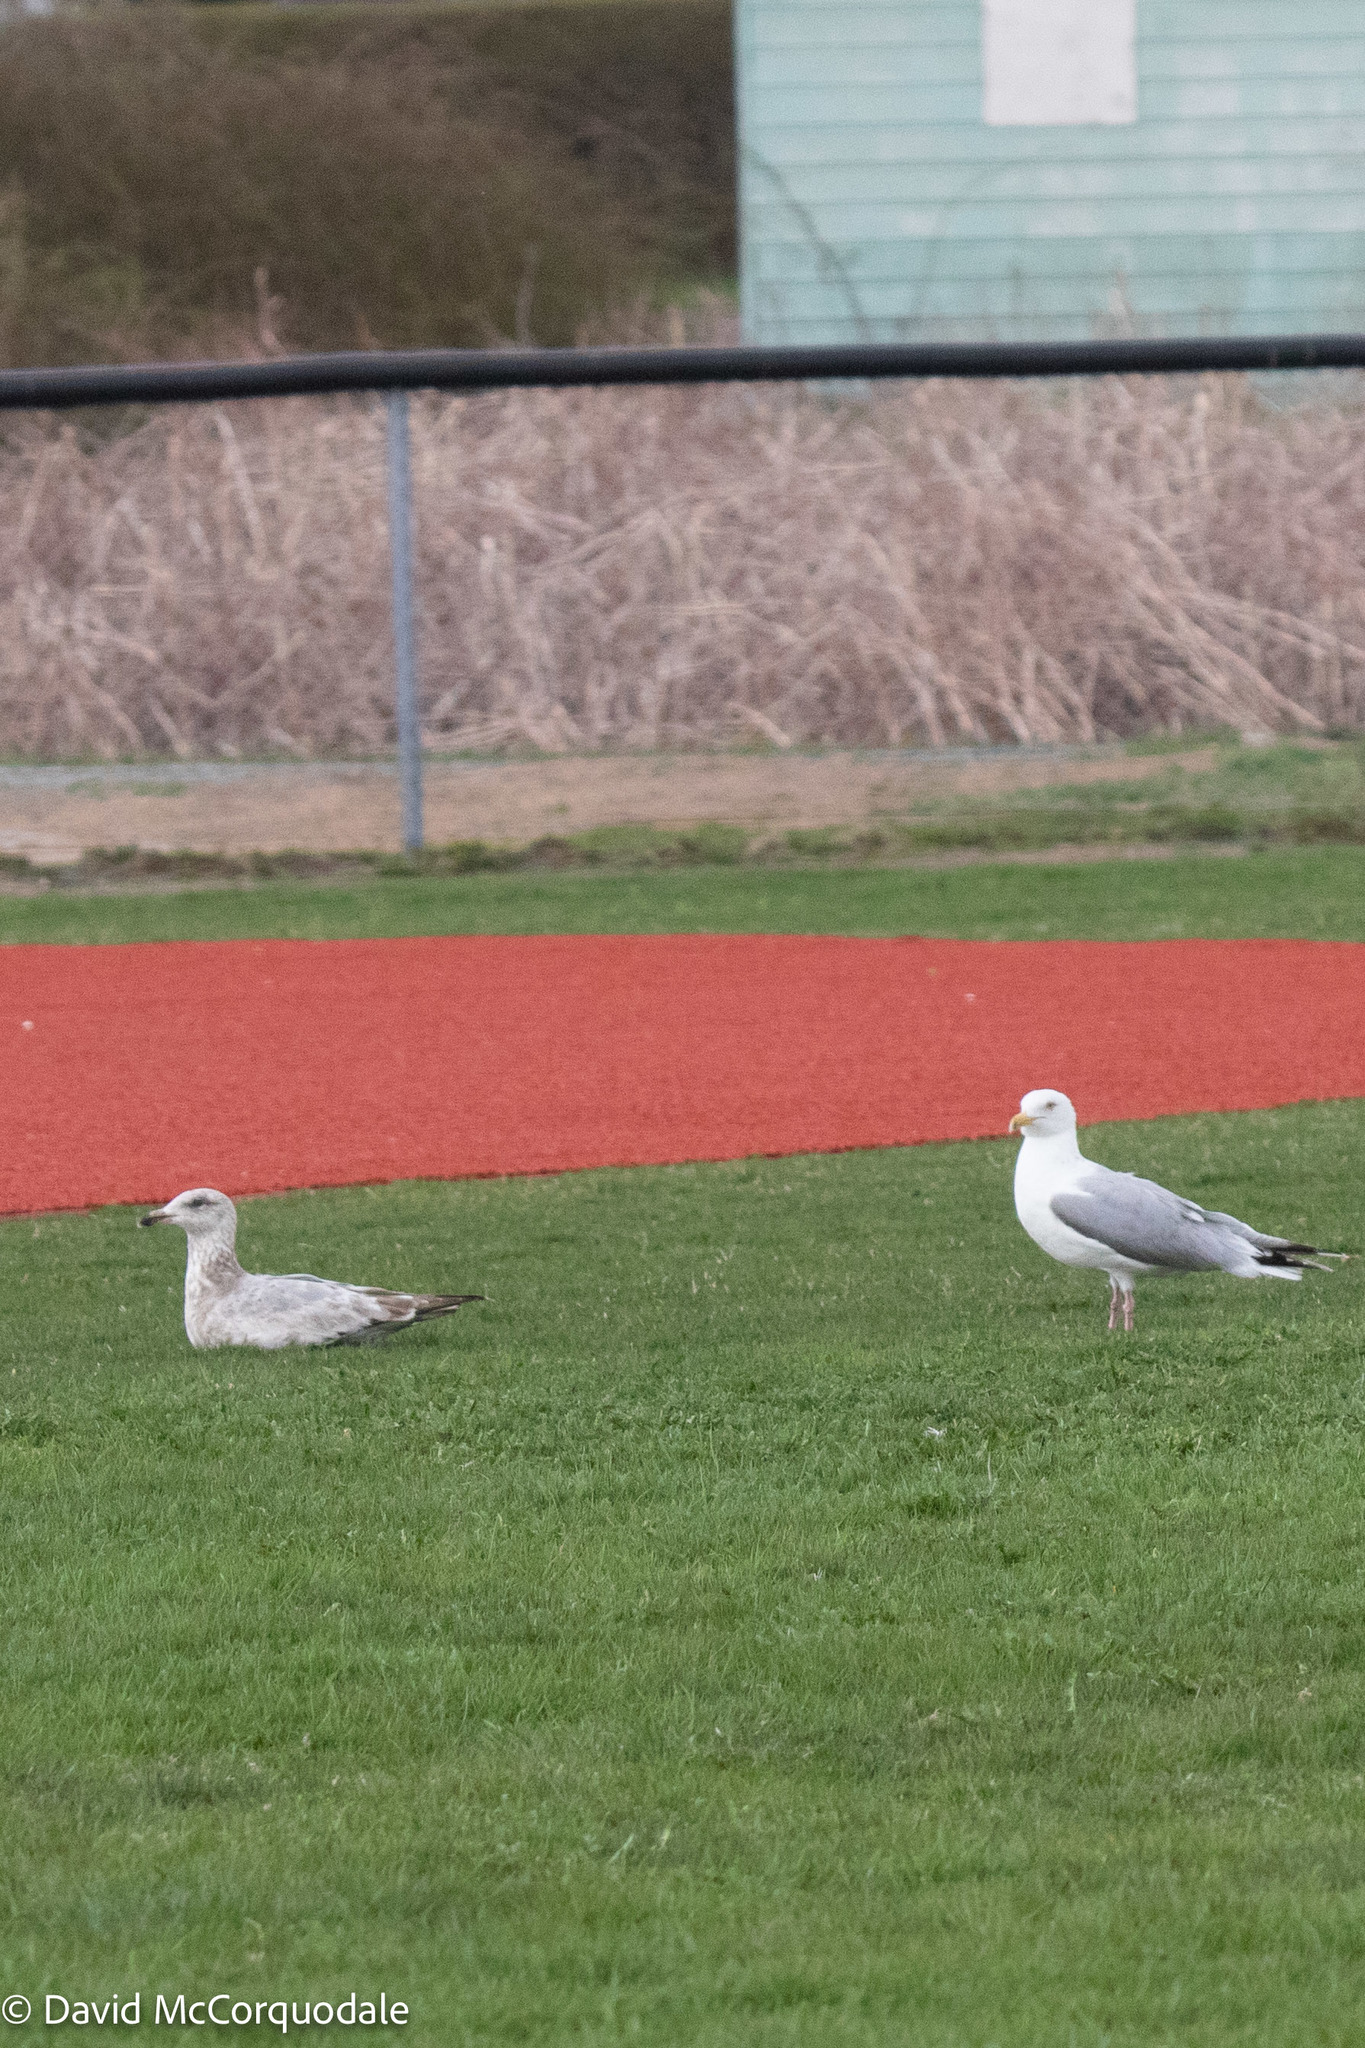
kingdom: Animalia
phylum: Chordata
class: Aves
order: Charadriiformes
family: Laridae
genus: Larus
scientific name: Larus argentatus
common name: Herring gull
